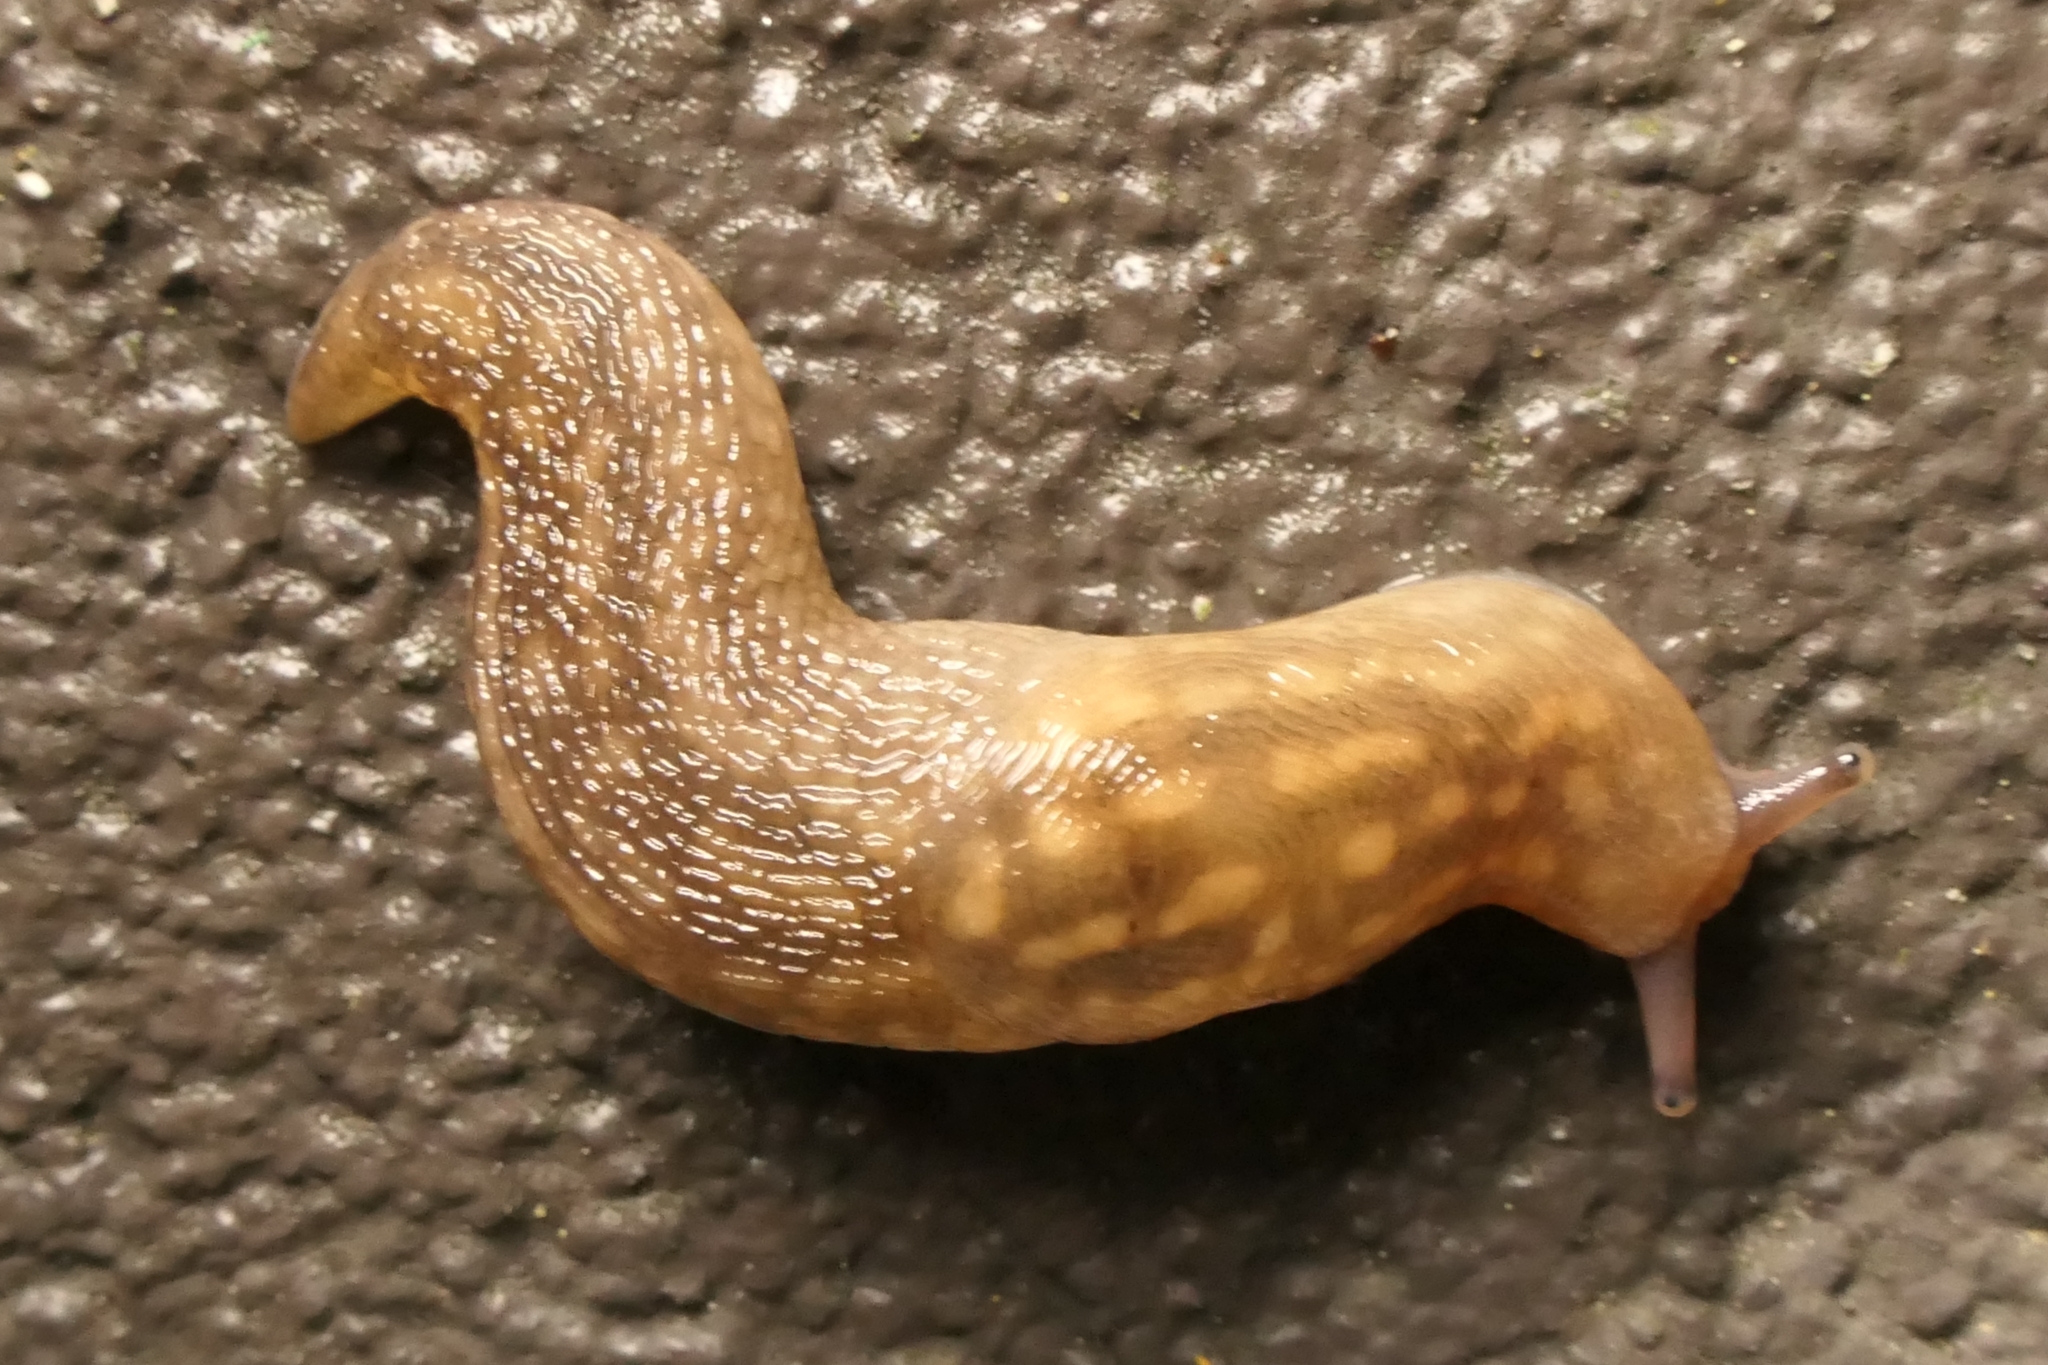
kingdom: Animalia
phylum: Mollusca
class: Gastropoda
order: Stylommatophora
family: Limacidae
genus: Limacus
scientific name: Limacus flavus
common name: Yellow gardenslug
